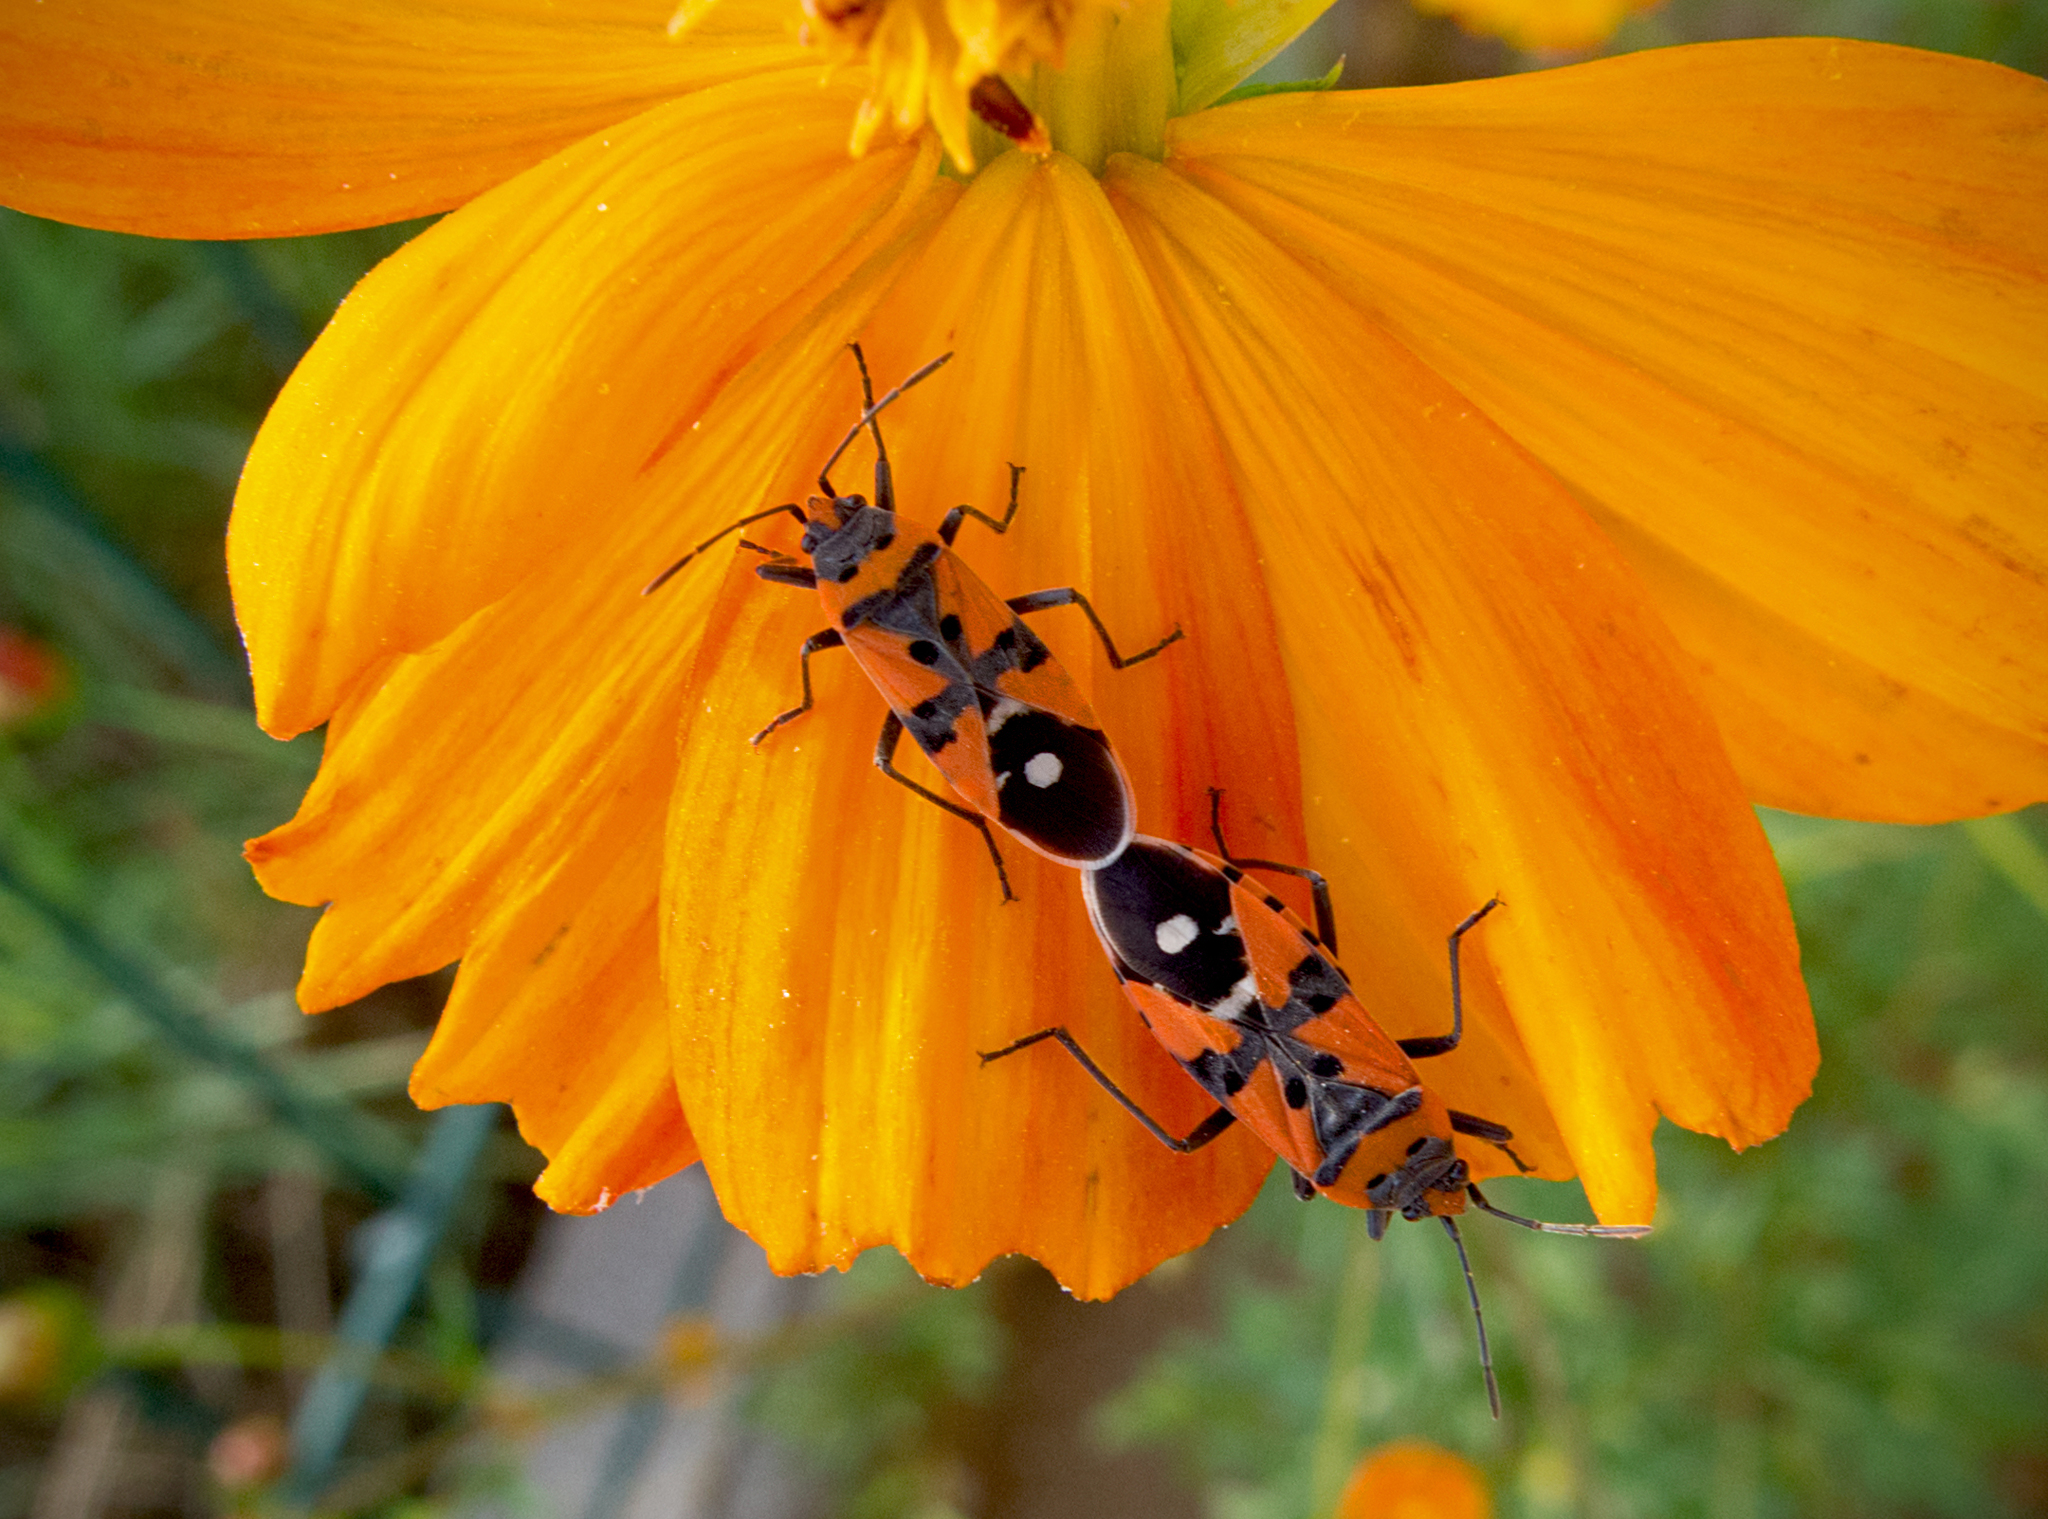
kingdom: Animalia
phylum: Arthropoda
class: Insecta
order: Hemiptera
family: Lygaeidae
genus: Lygaeus
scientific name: Lygaeus equestris
